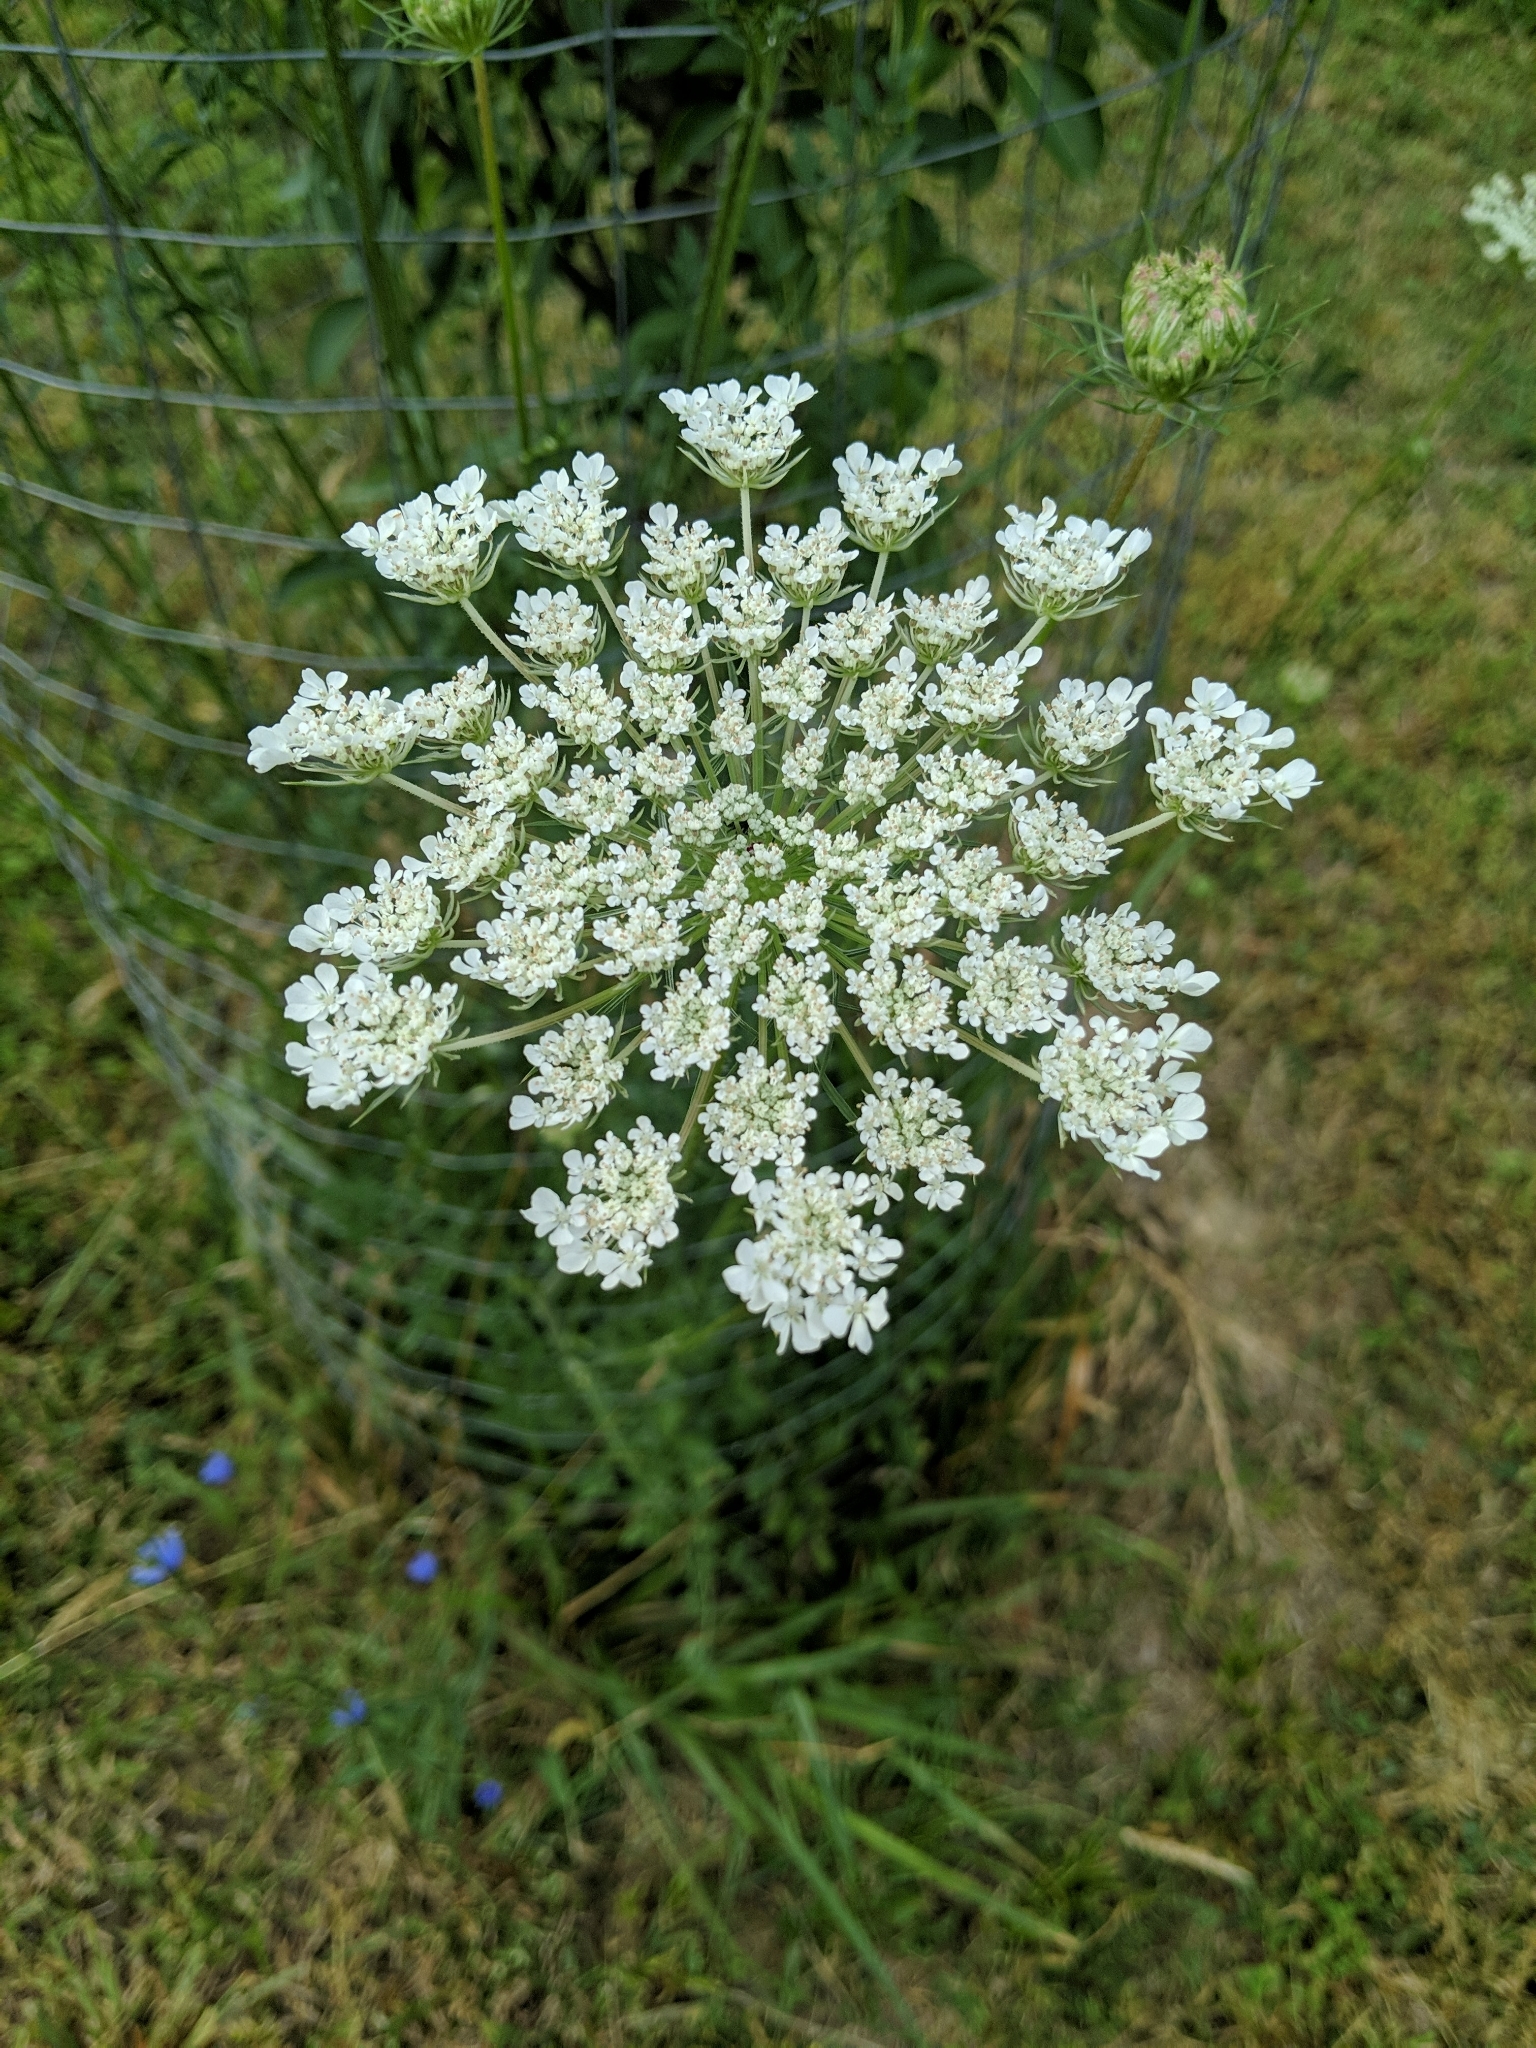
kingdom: Plantae
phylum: Tracheophyta
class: Magnoliopsida
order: Apiales
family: Apiaceae
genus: Daucus
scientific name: Daucus carota
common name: Wild carrot
